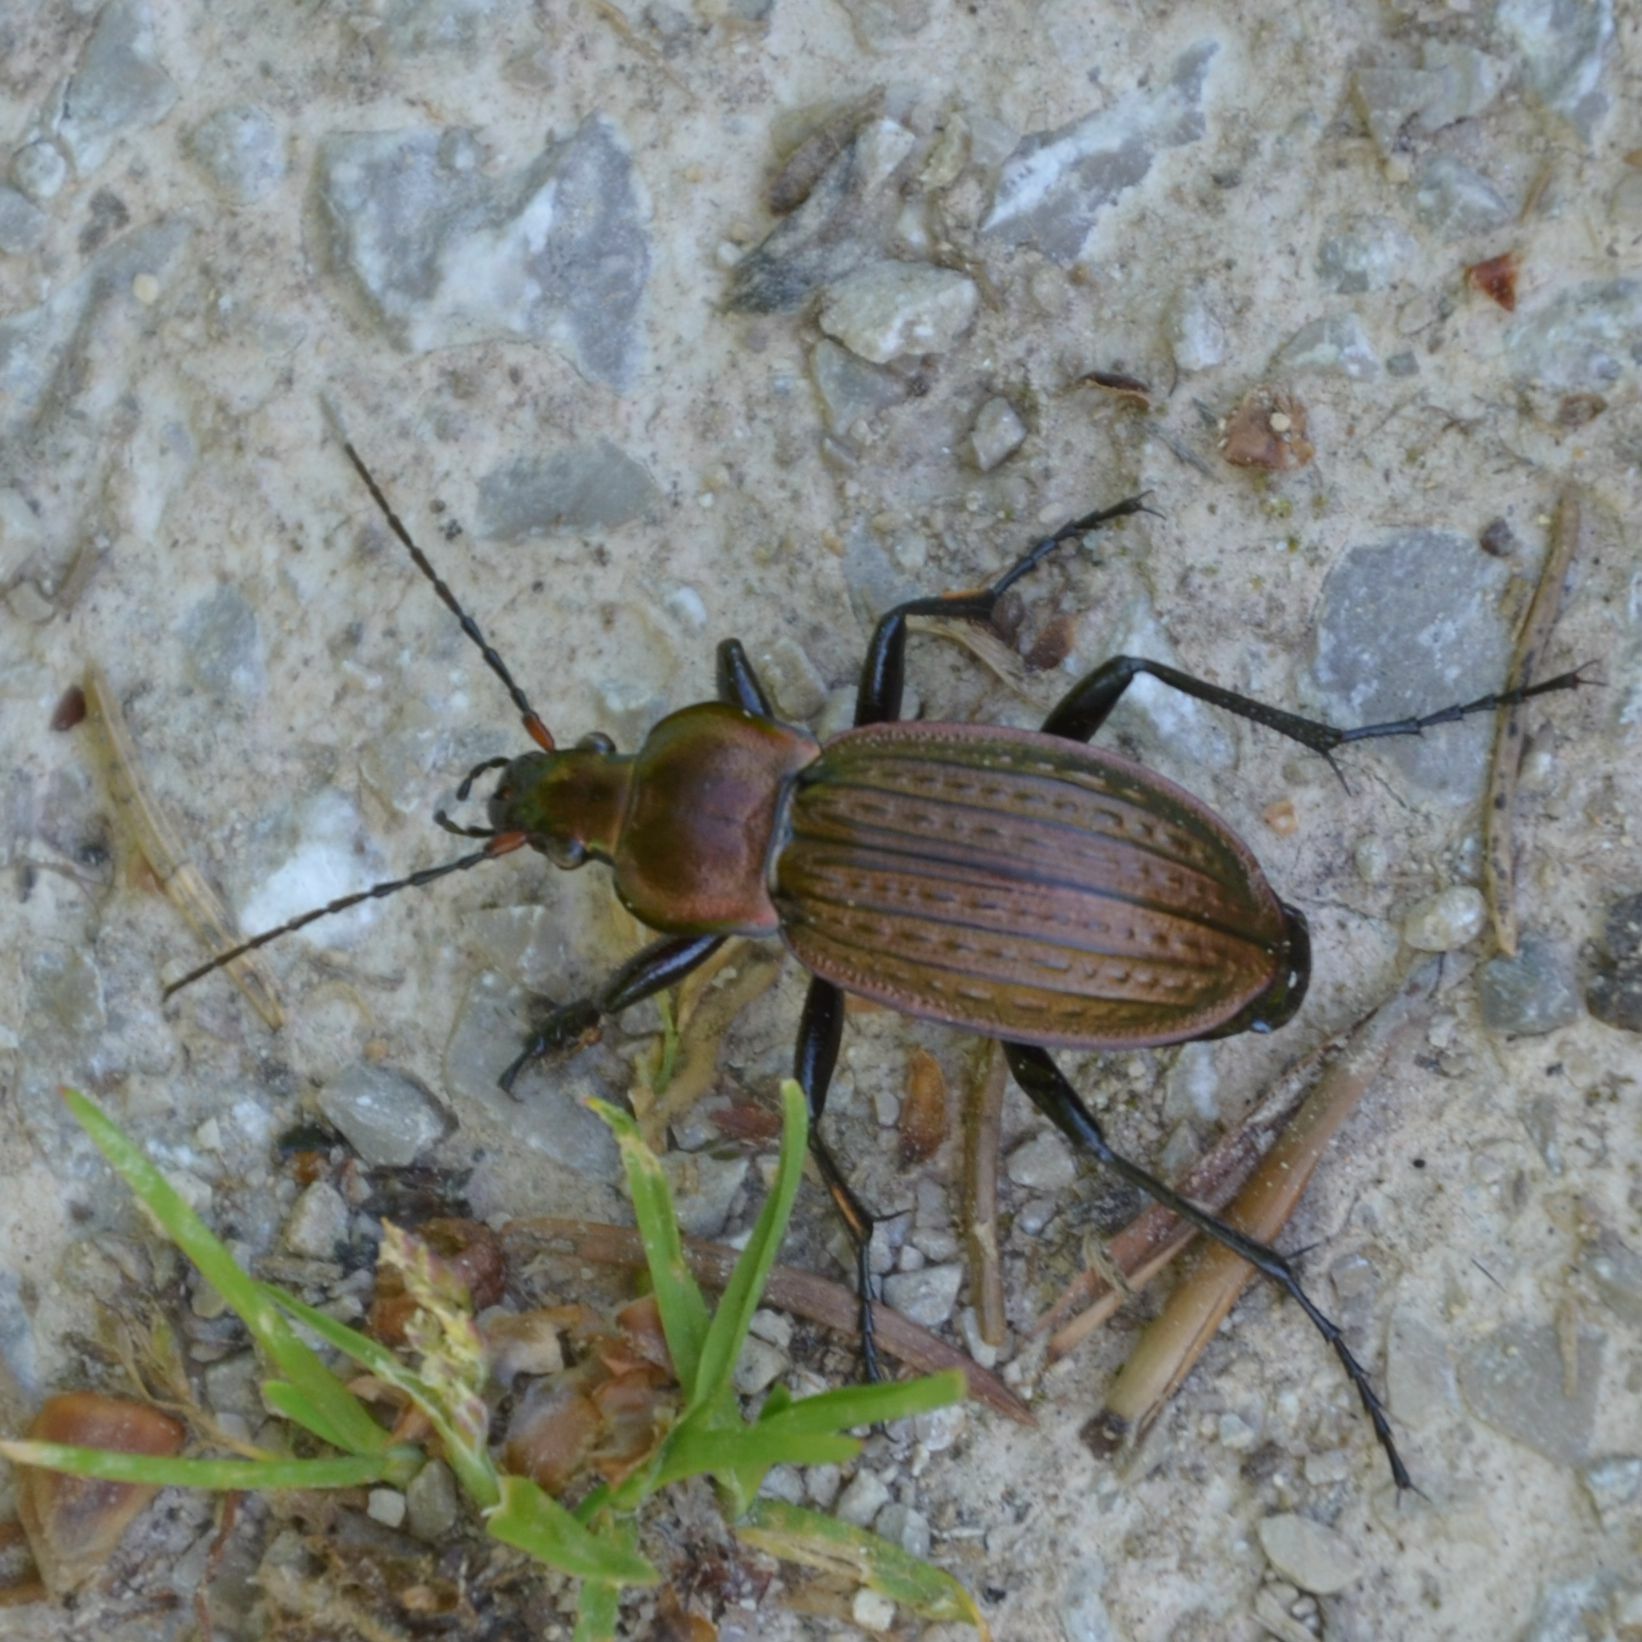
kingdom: Animalia
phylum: Arthropoda
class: Insecta
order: Coleoptera
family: Carabidae
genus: Carabus
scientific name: Carabus cancellatus
